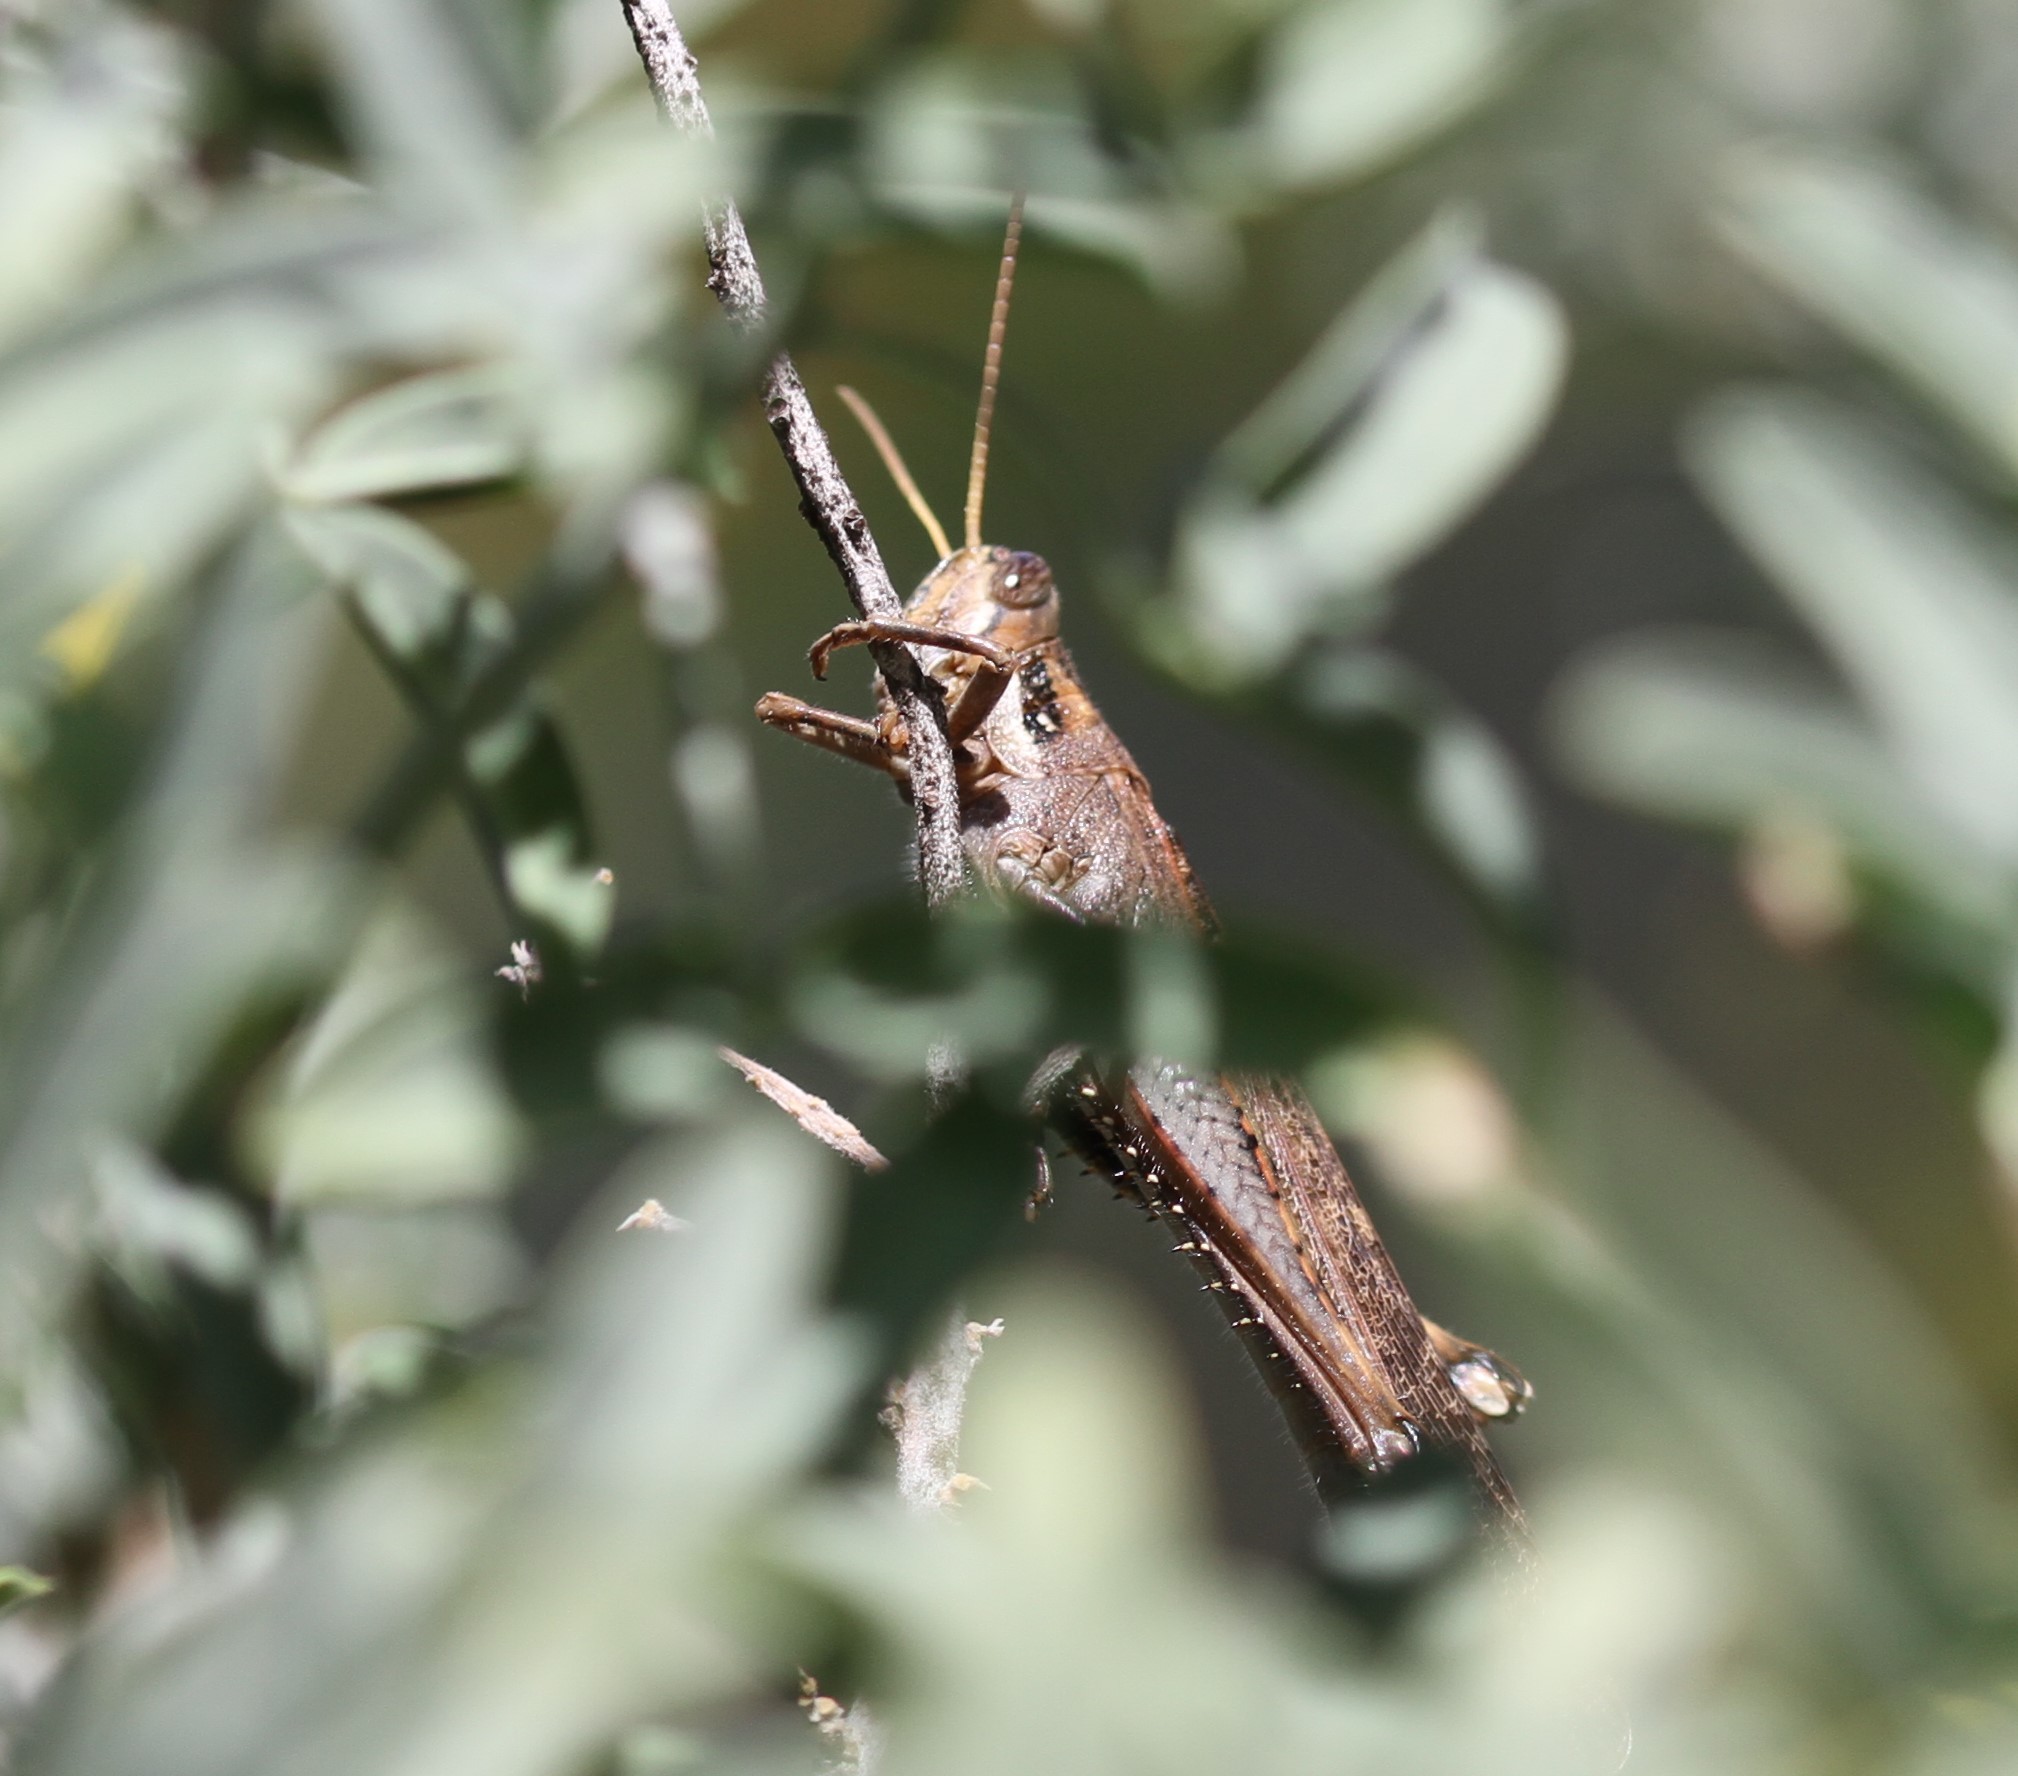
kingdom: Animalia
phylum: Arthropoda
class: Insecta
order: Orthoptera
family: Acrididae
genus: Schistocerca
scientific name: Schistocerca nitens
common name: Vagrant grasshopper
